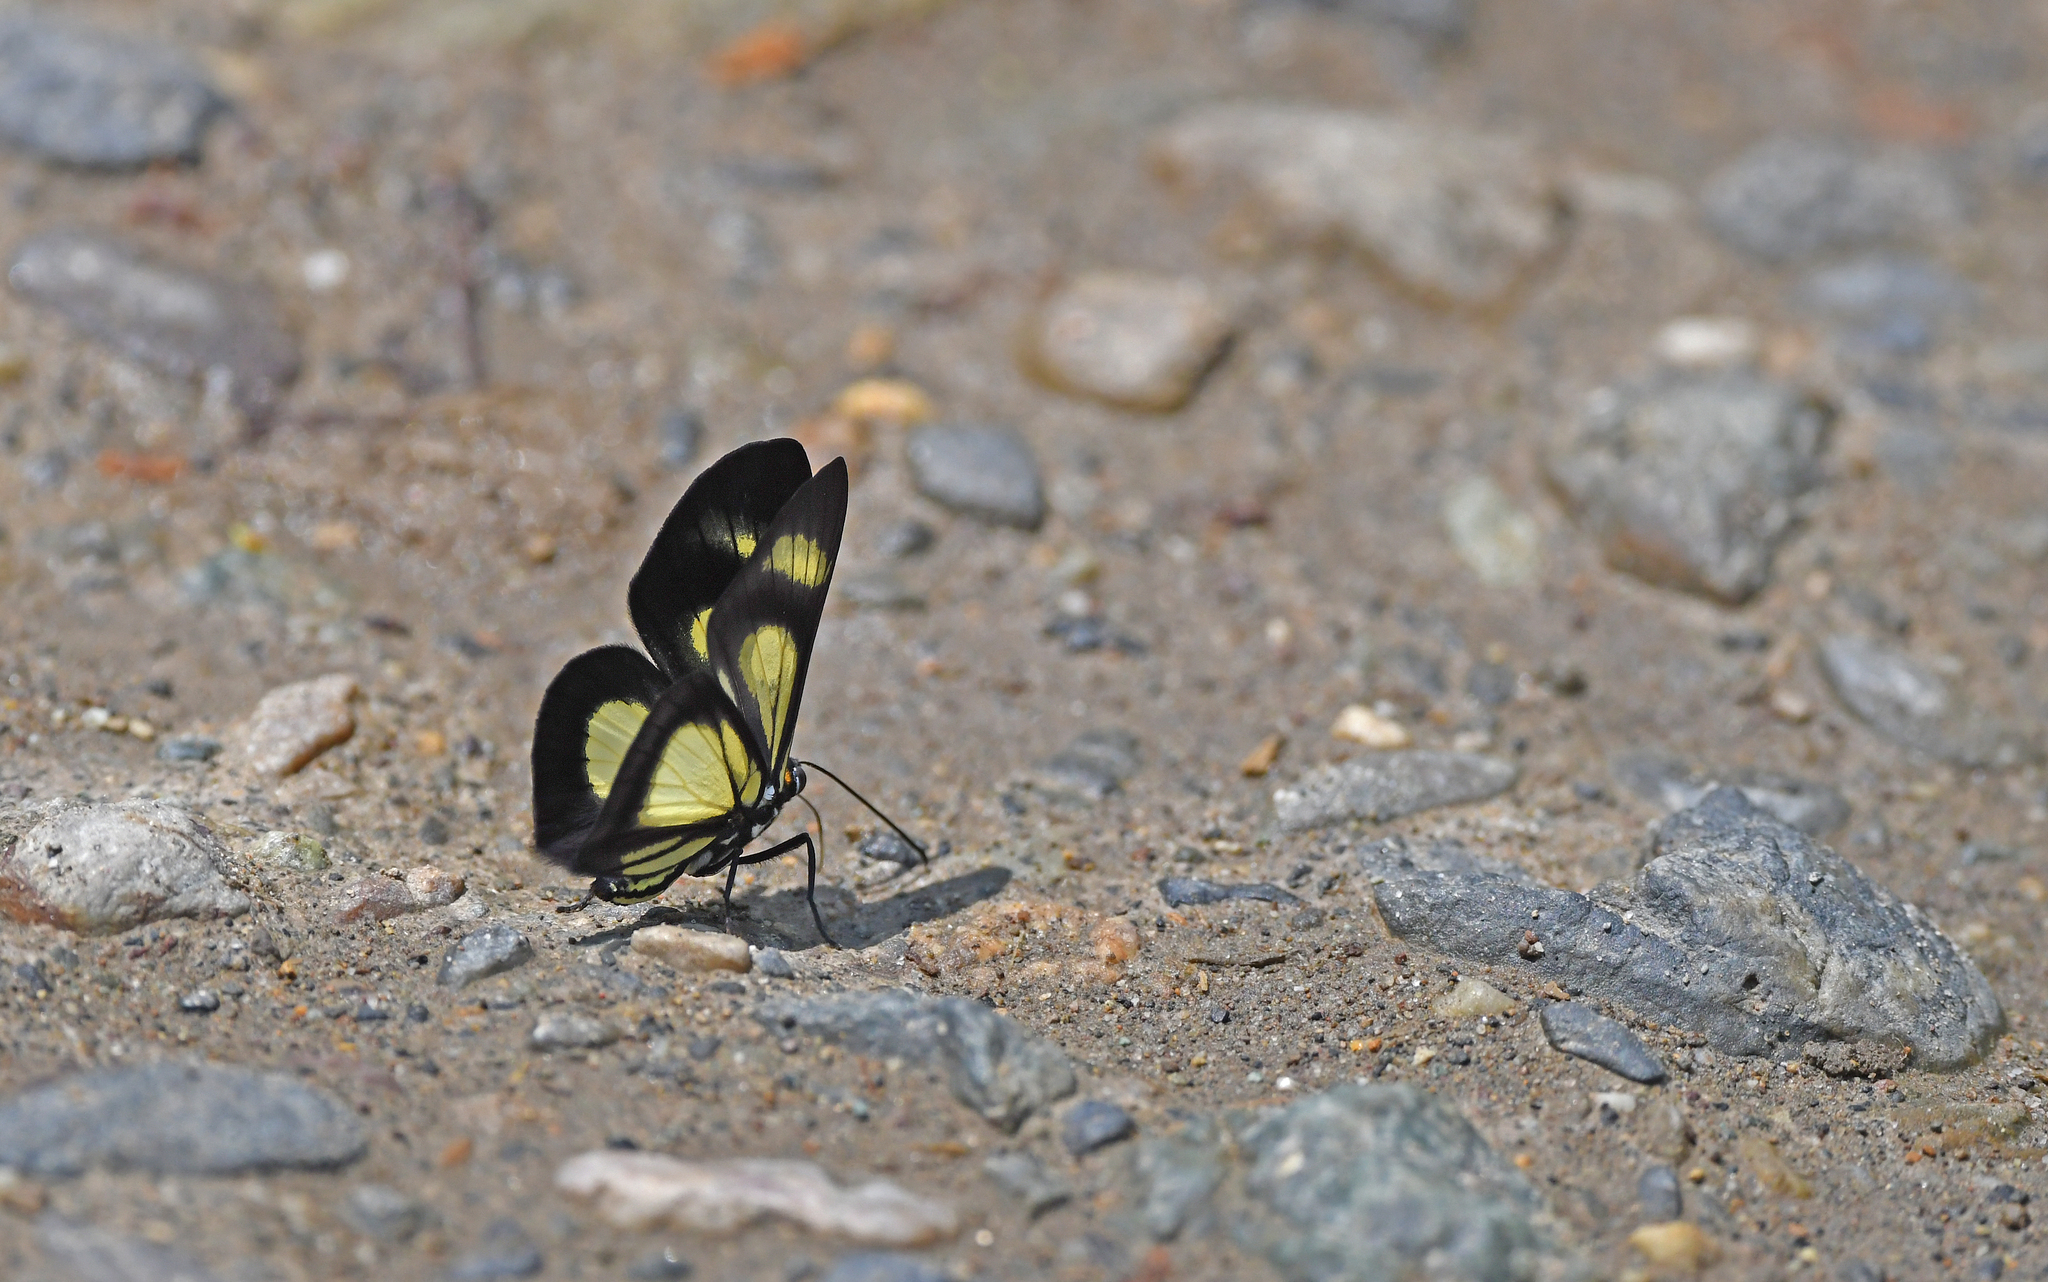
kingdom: Animalia
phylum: Arthropoda
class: Insecta
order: Lepidoptera
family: Riodinidae
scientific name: Riodinidae
